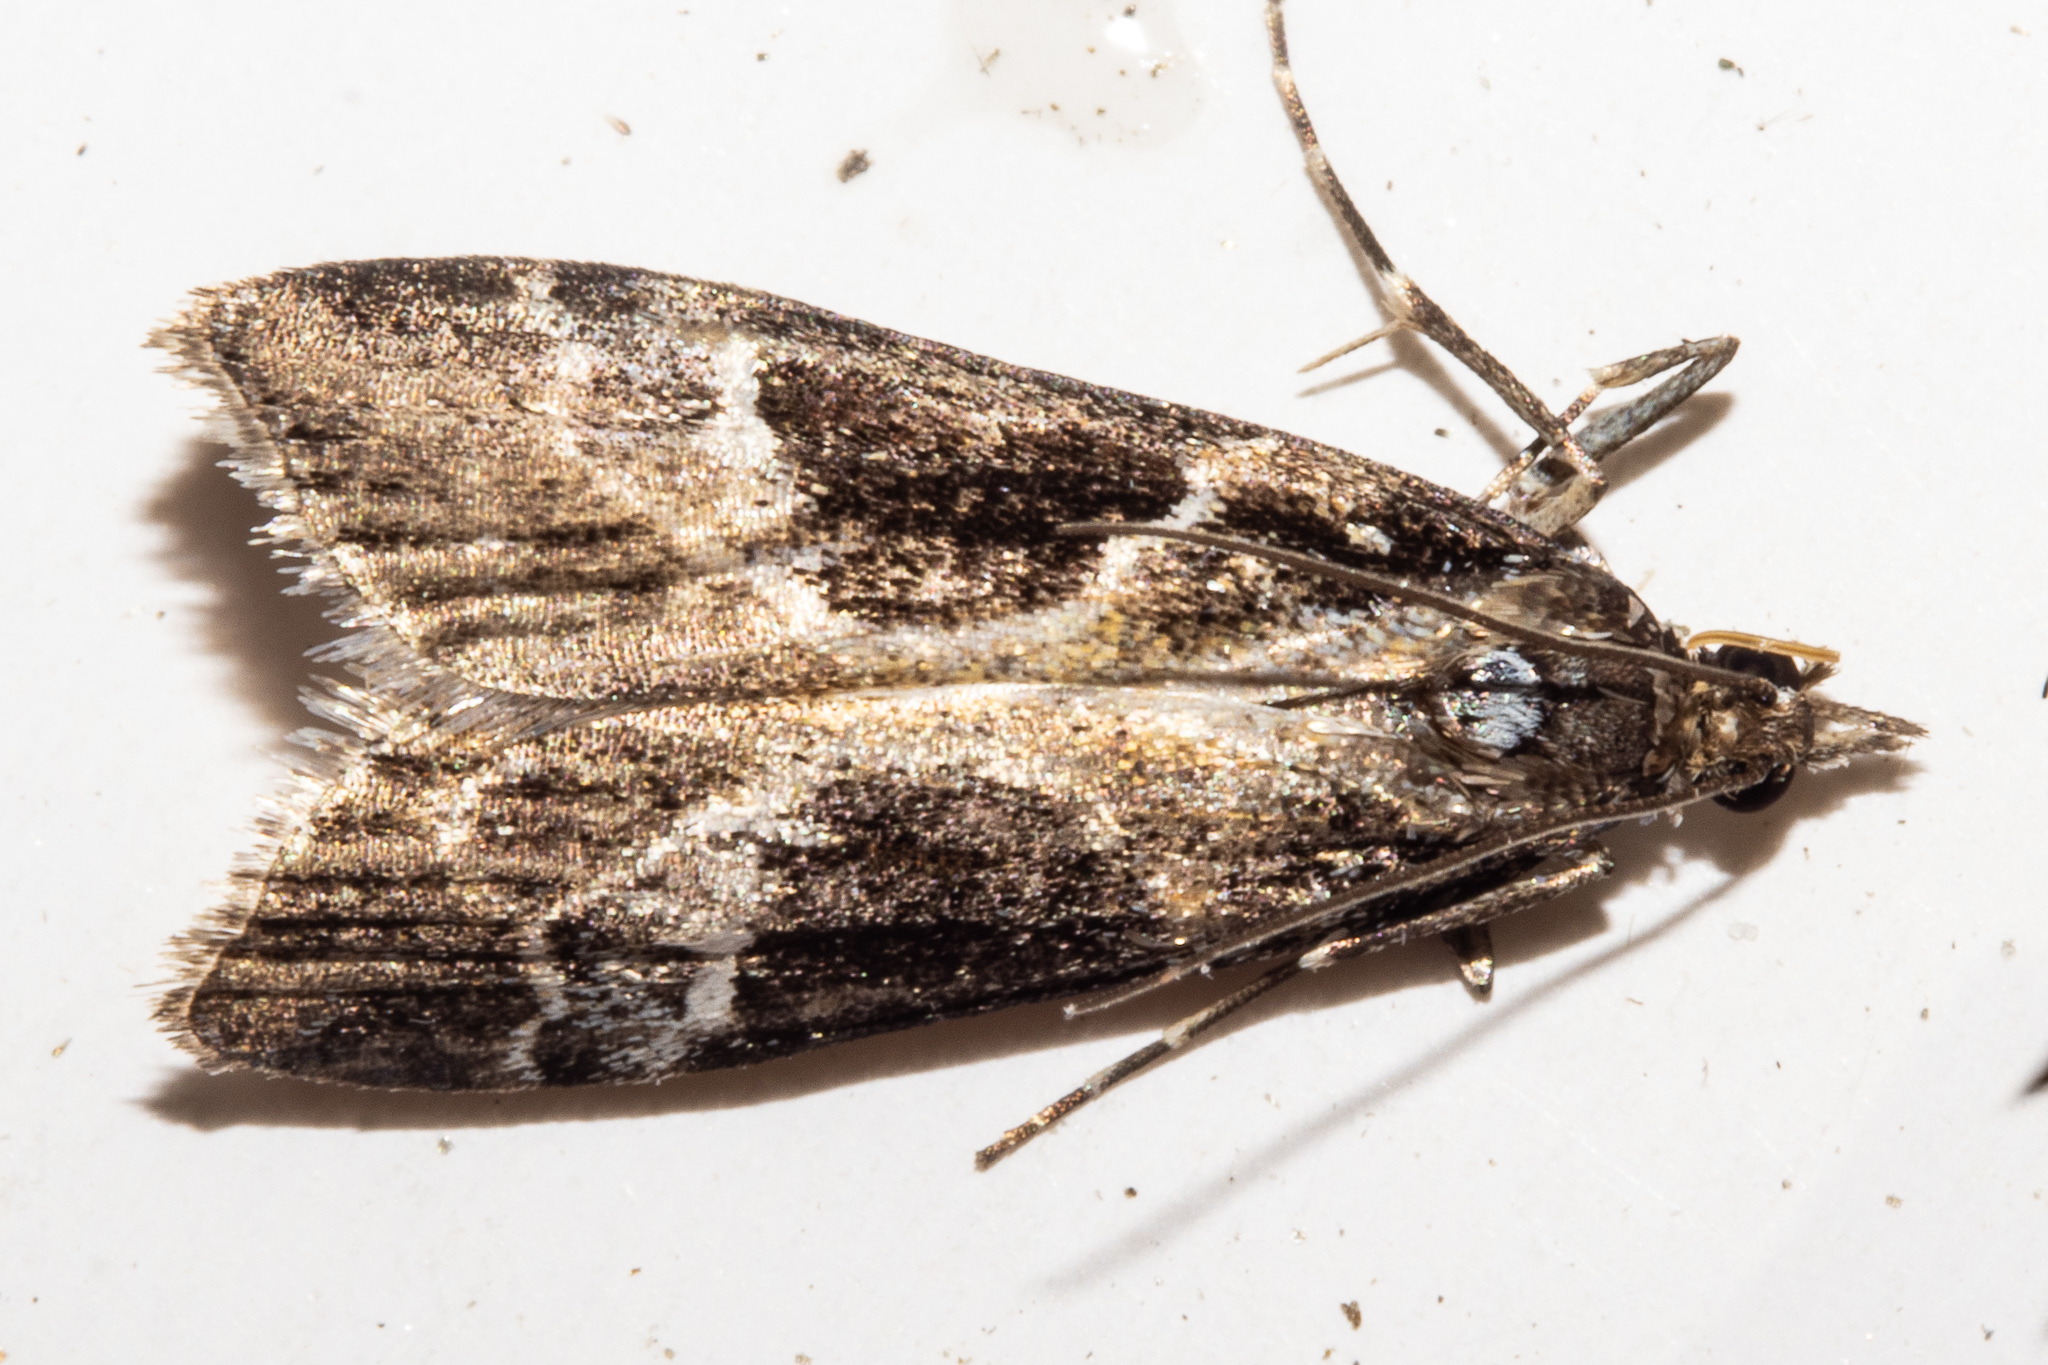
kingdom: Animalia
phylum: Arthropoda
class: Insecta
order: Lepidoptera
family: Crambidae
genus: Eudonia
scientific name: Eudonia melanaegis
